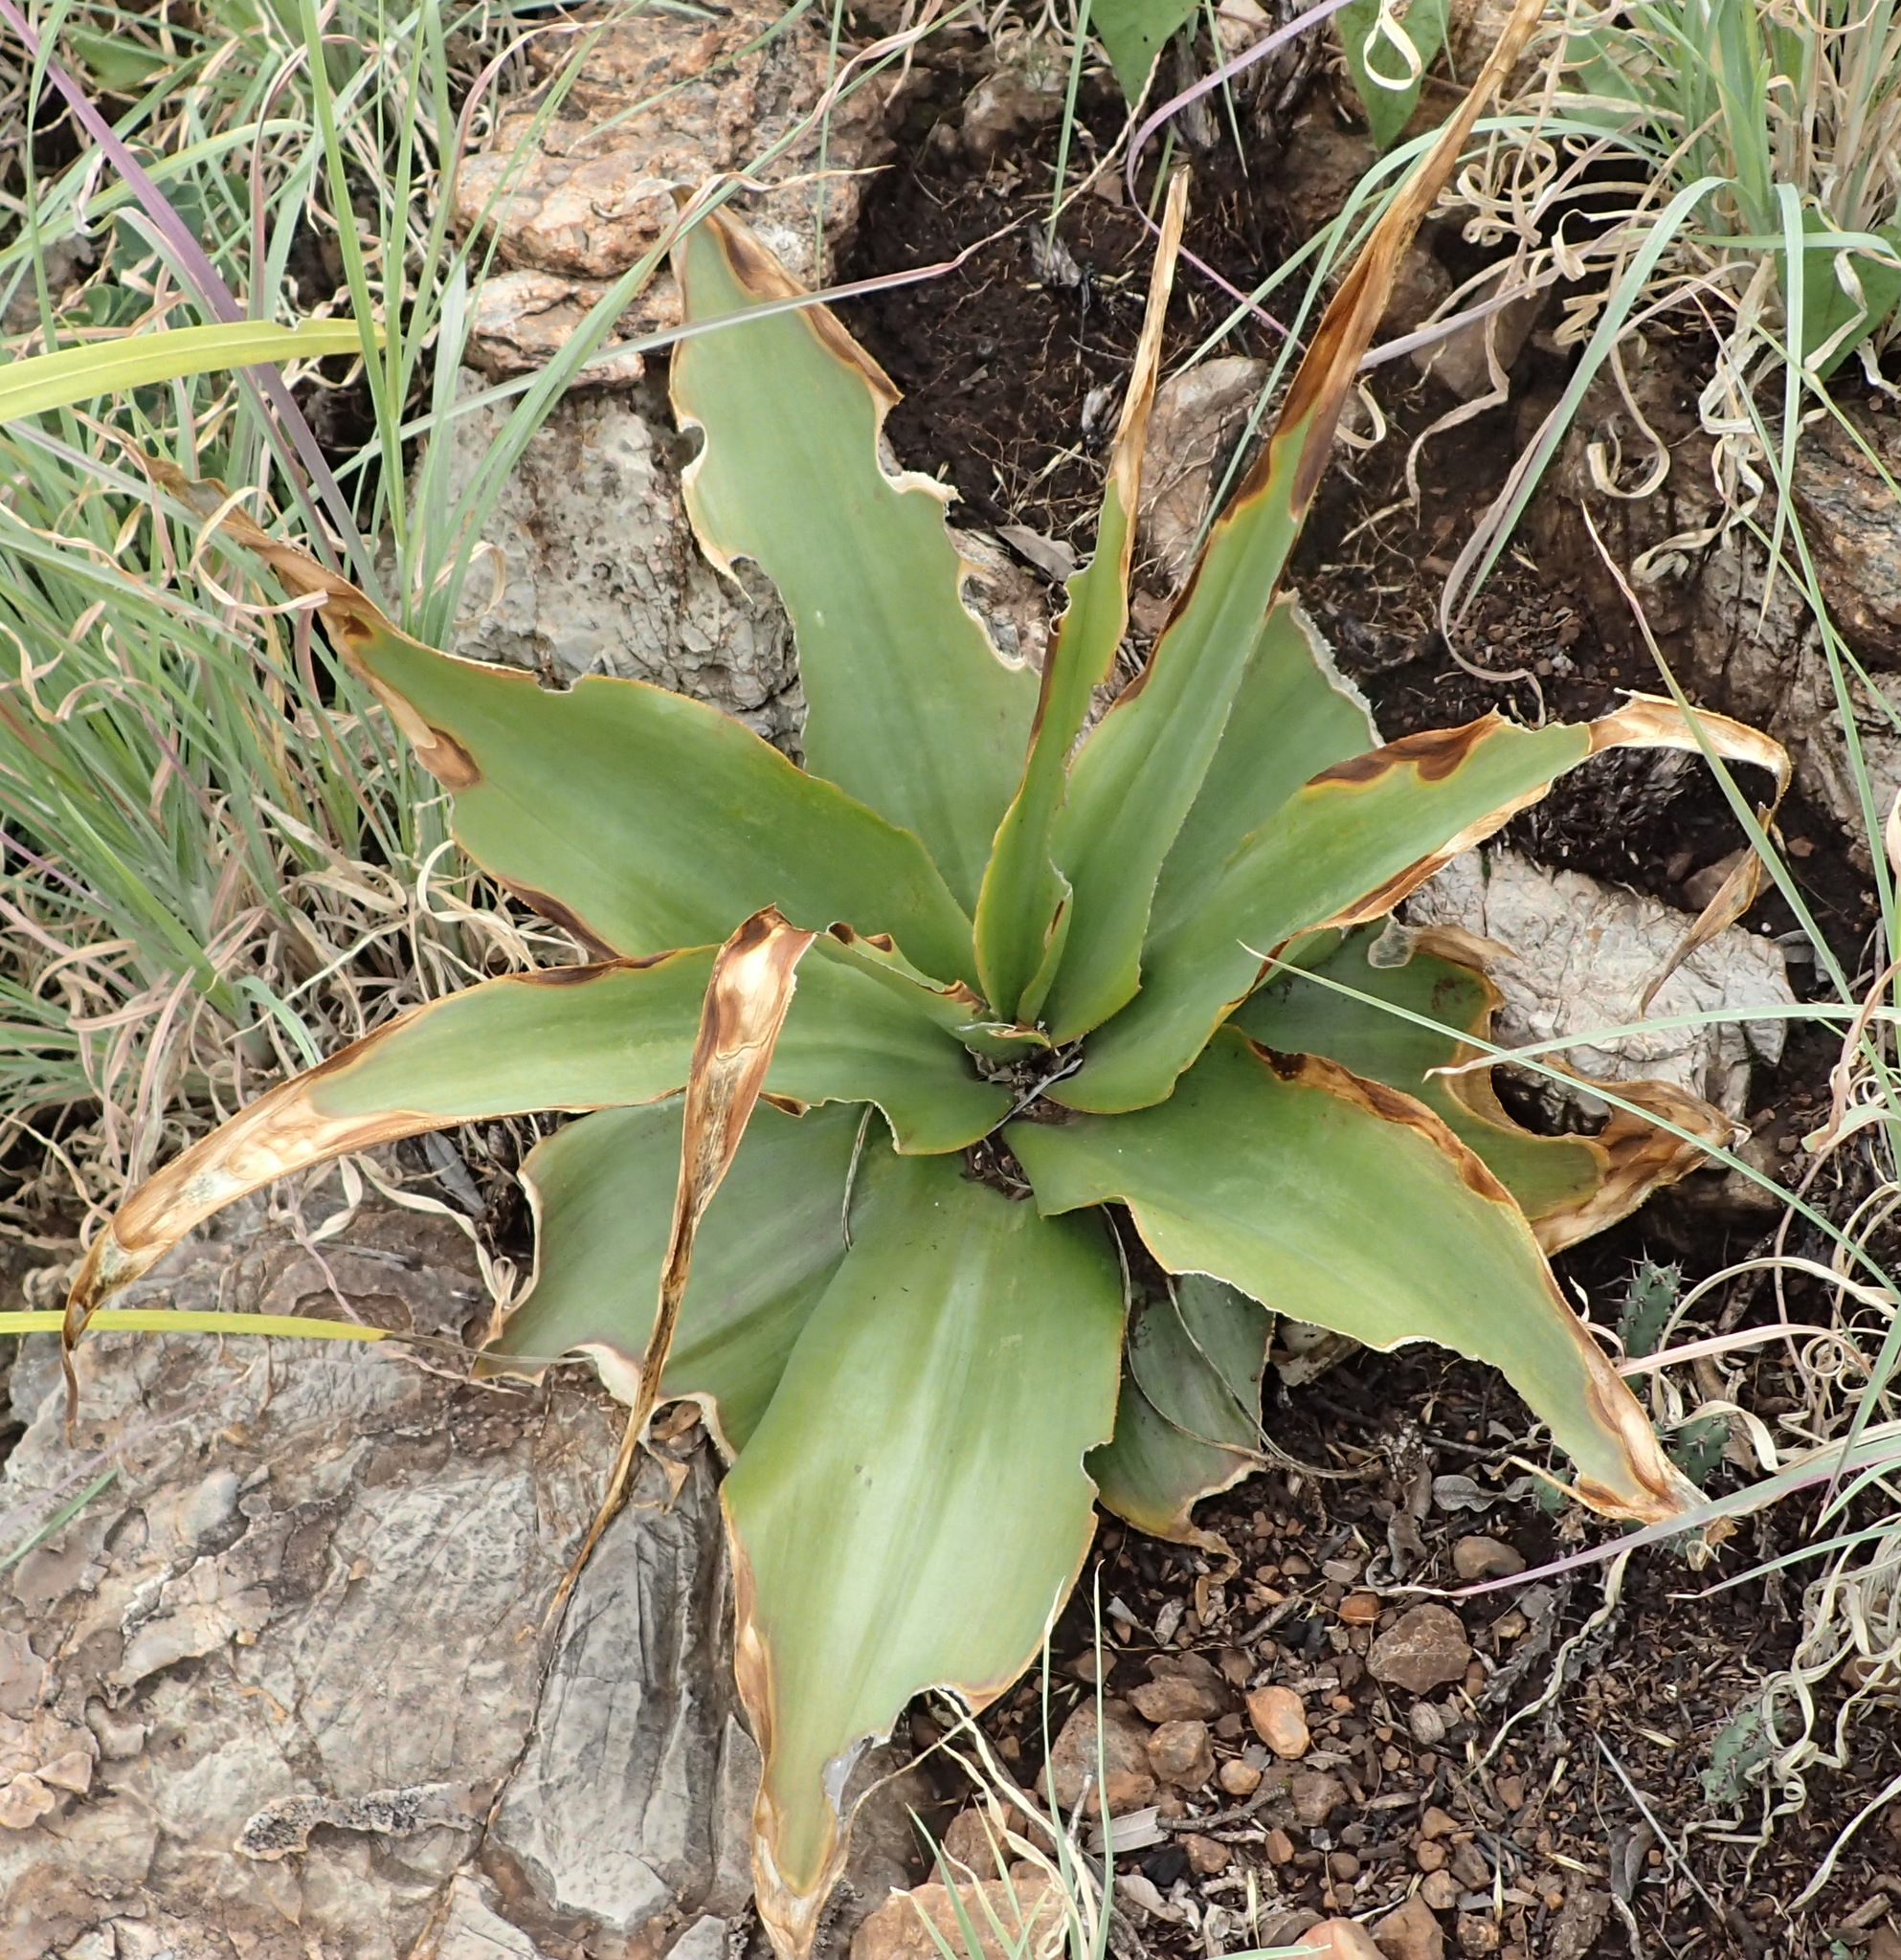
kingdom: Plantae
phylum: Tracheophyta
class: Liliopsida
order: Asparagales
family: Asparagaceae
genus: Ledebouria
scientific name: Ledebouria marginata
